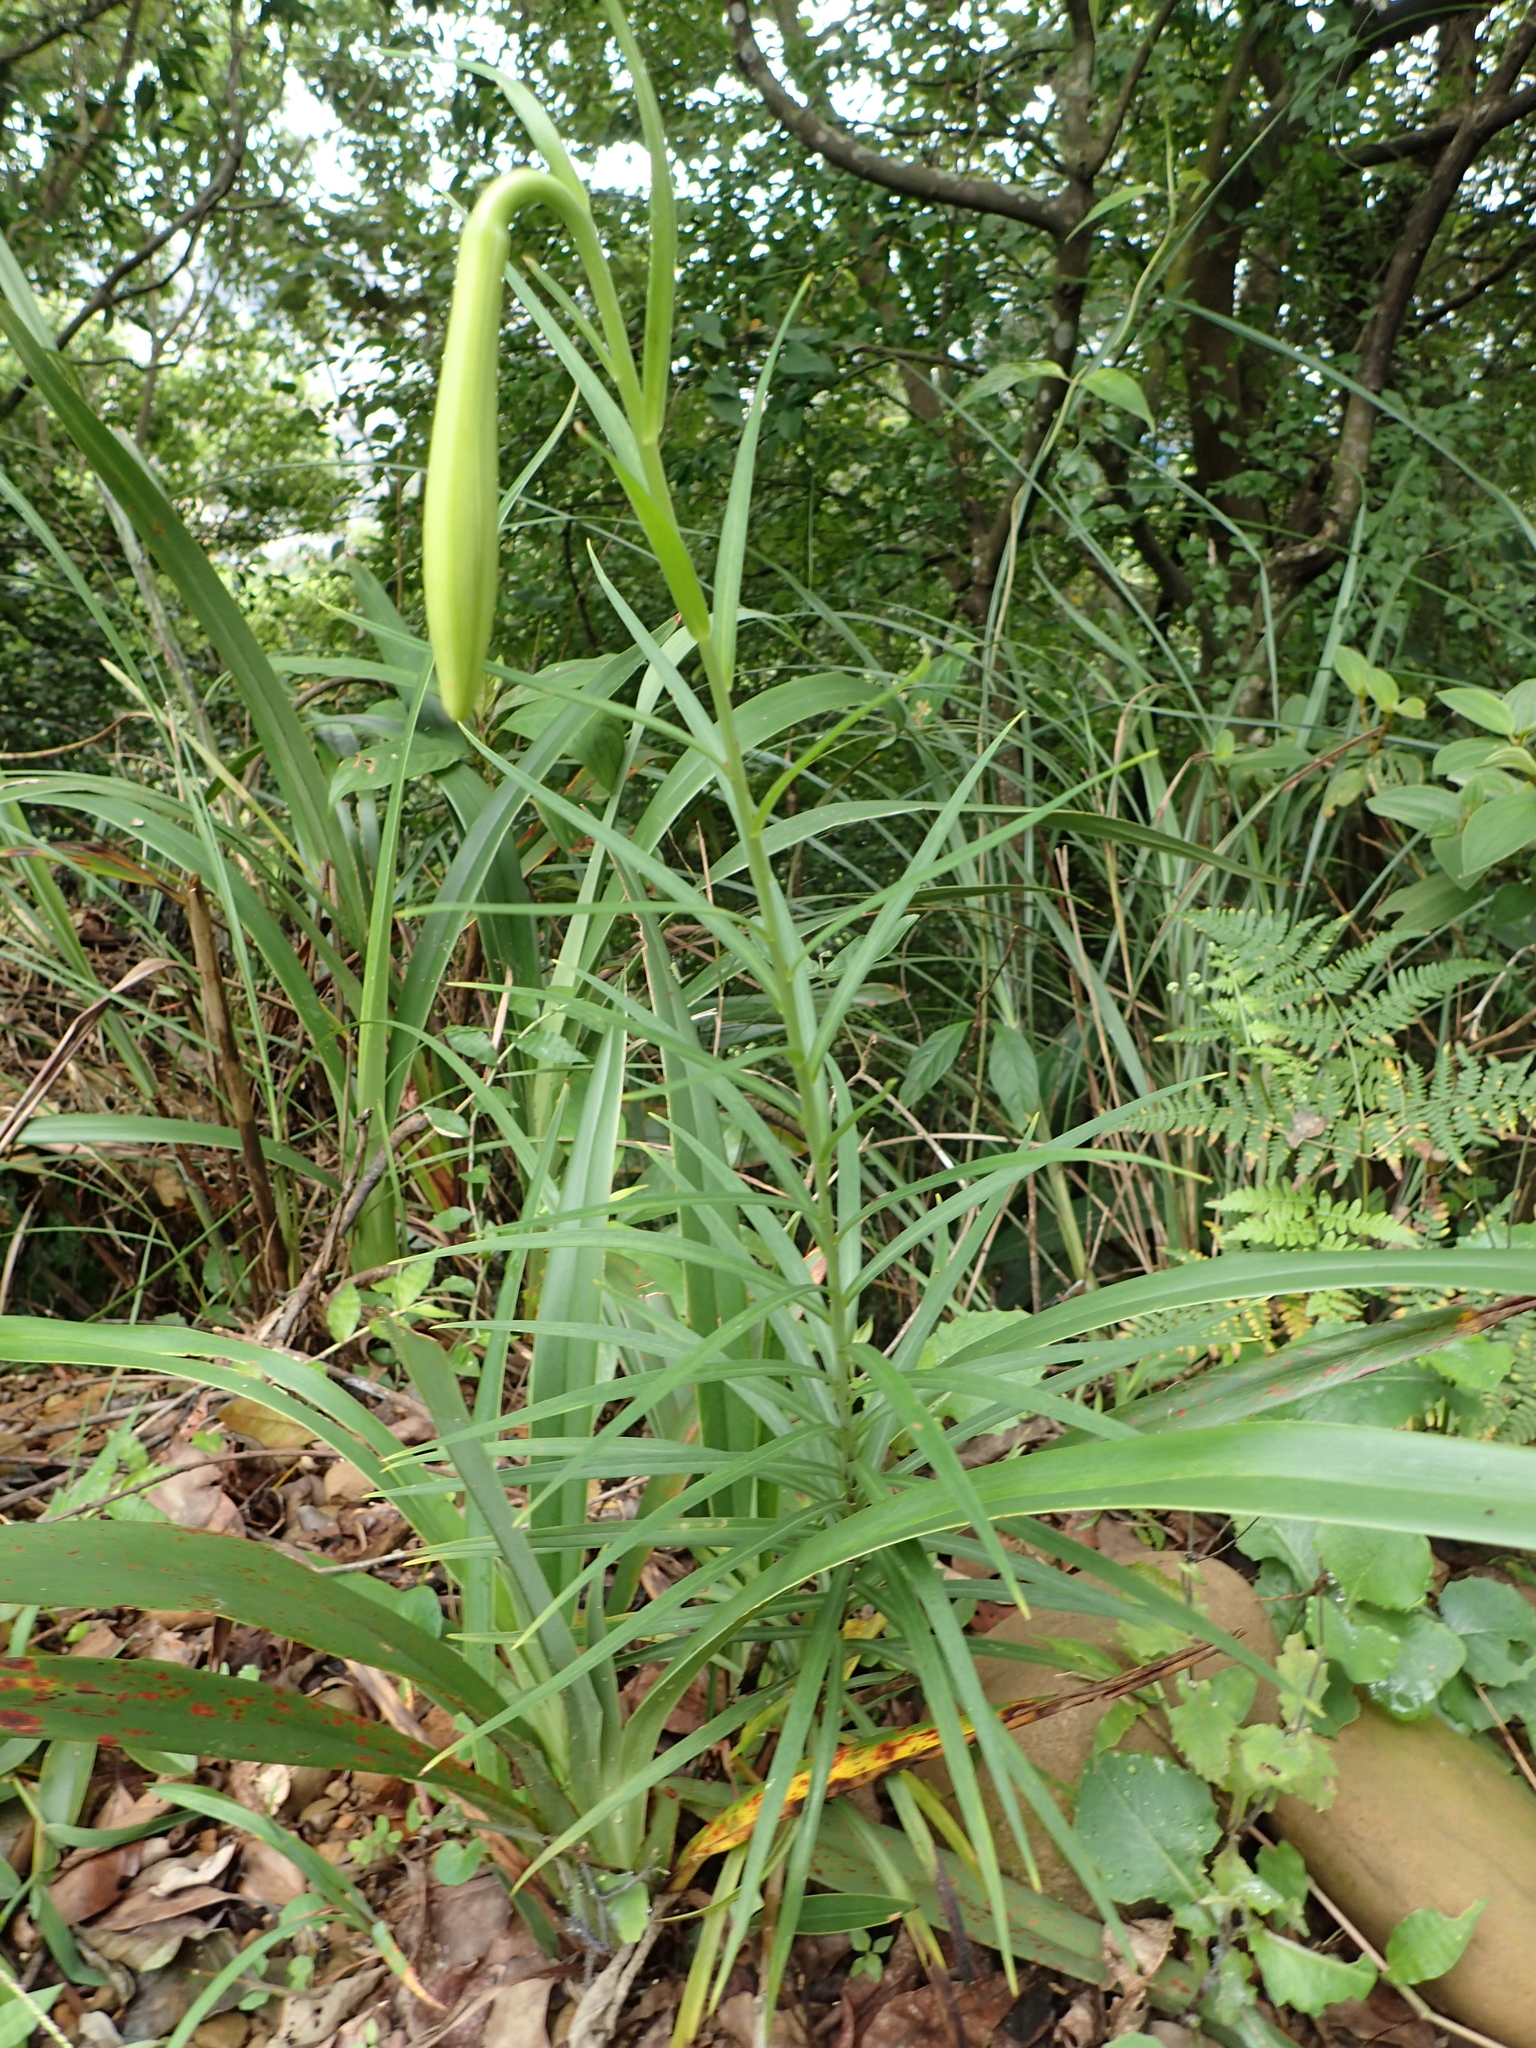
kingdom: Plantae
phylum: Tracheophyta
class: Liliopsida
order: Liliales
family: Liliaceae
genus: Lilium
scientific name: Lilium formosanum
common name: Formosa lily
